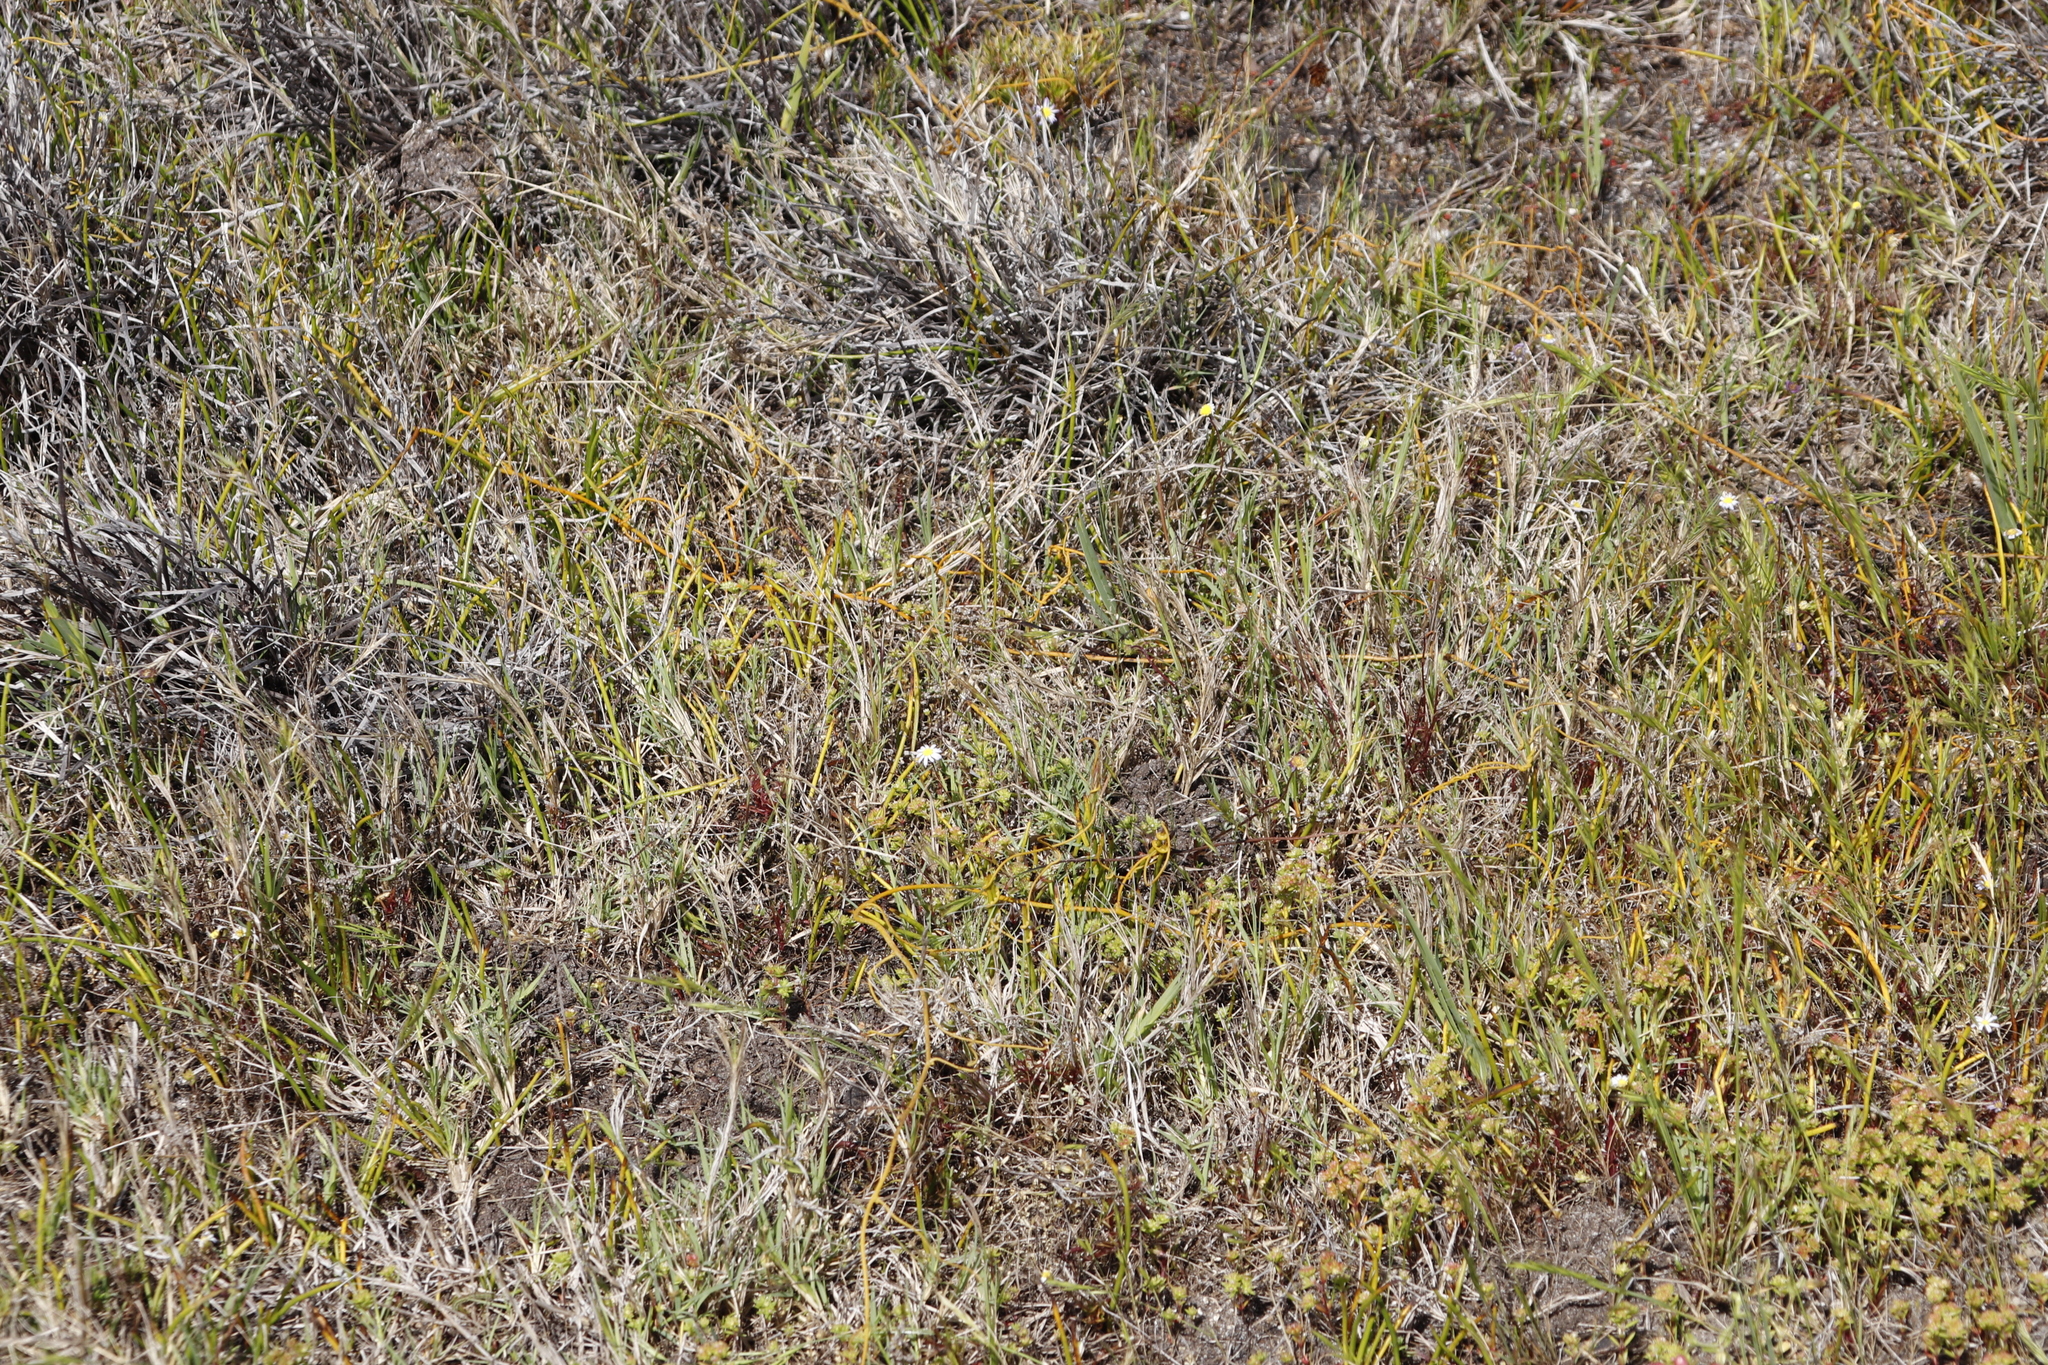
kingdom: Plantae
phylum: Tracheophyta
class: Magnoliopsida
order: Laurales
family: Lauraceae
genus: Cassytha
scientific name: Cassytha ciliolata
